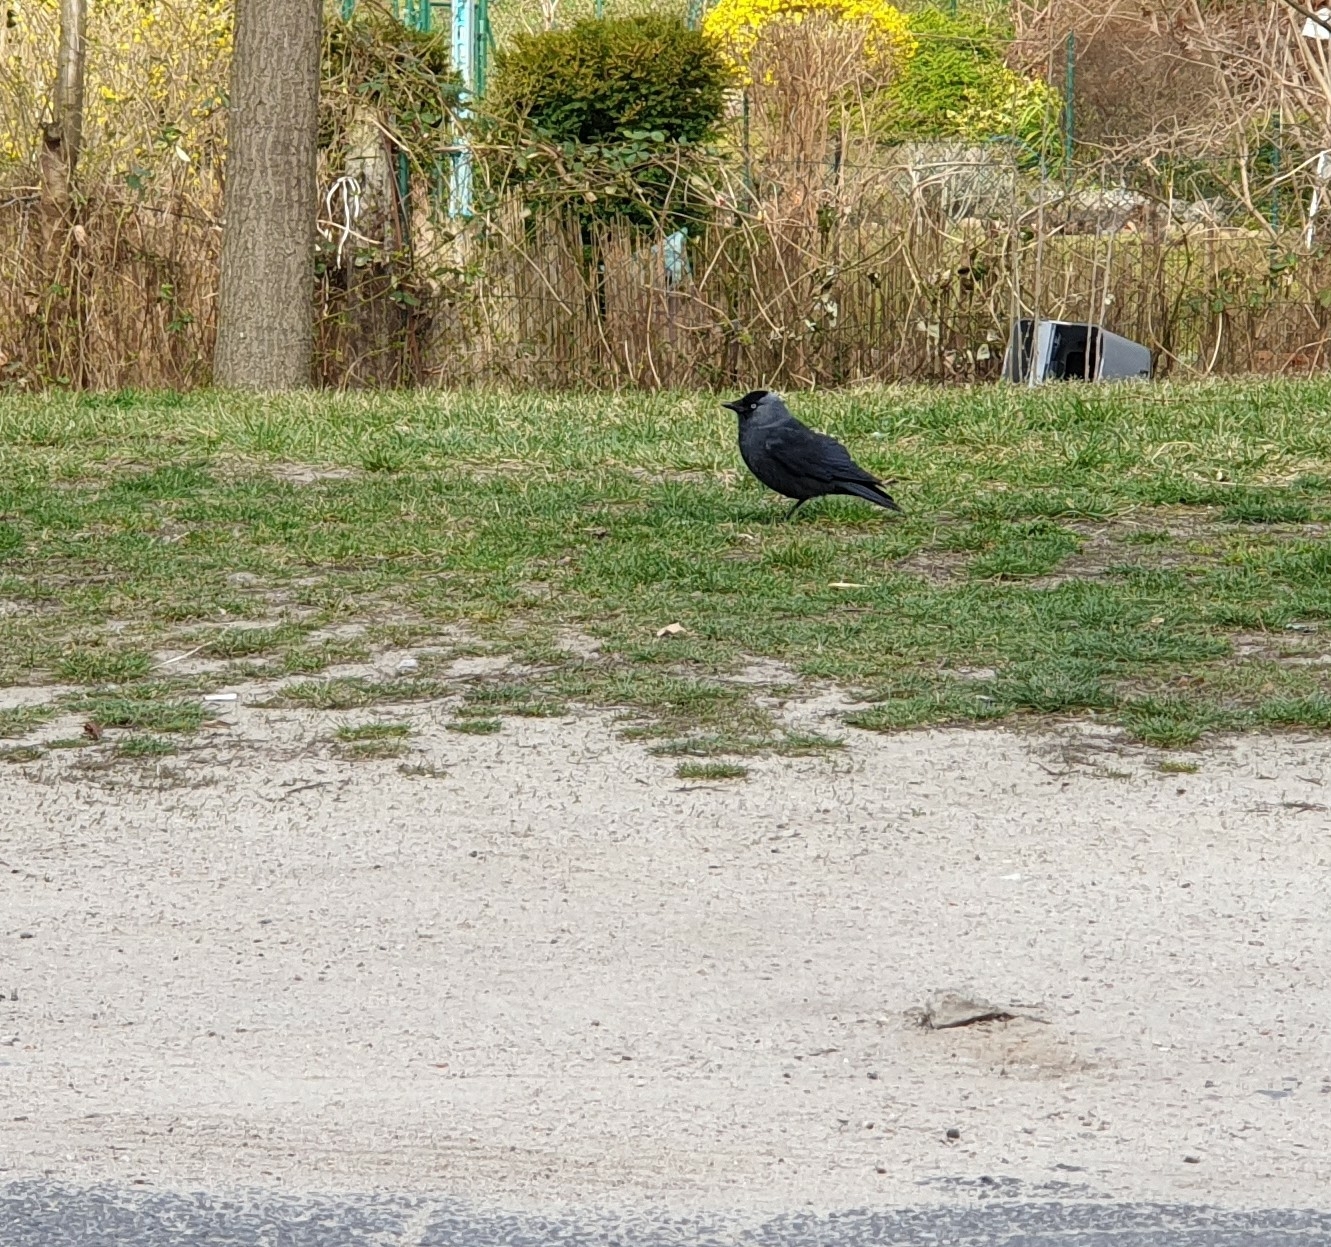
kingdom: Animalia
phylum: Chordata
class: Aves
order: Passeriformes
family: Corvidae
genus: Coloeus
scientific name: Coloeus monedula
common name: Western jackdaw
